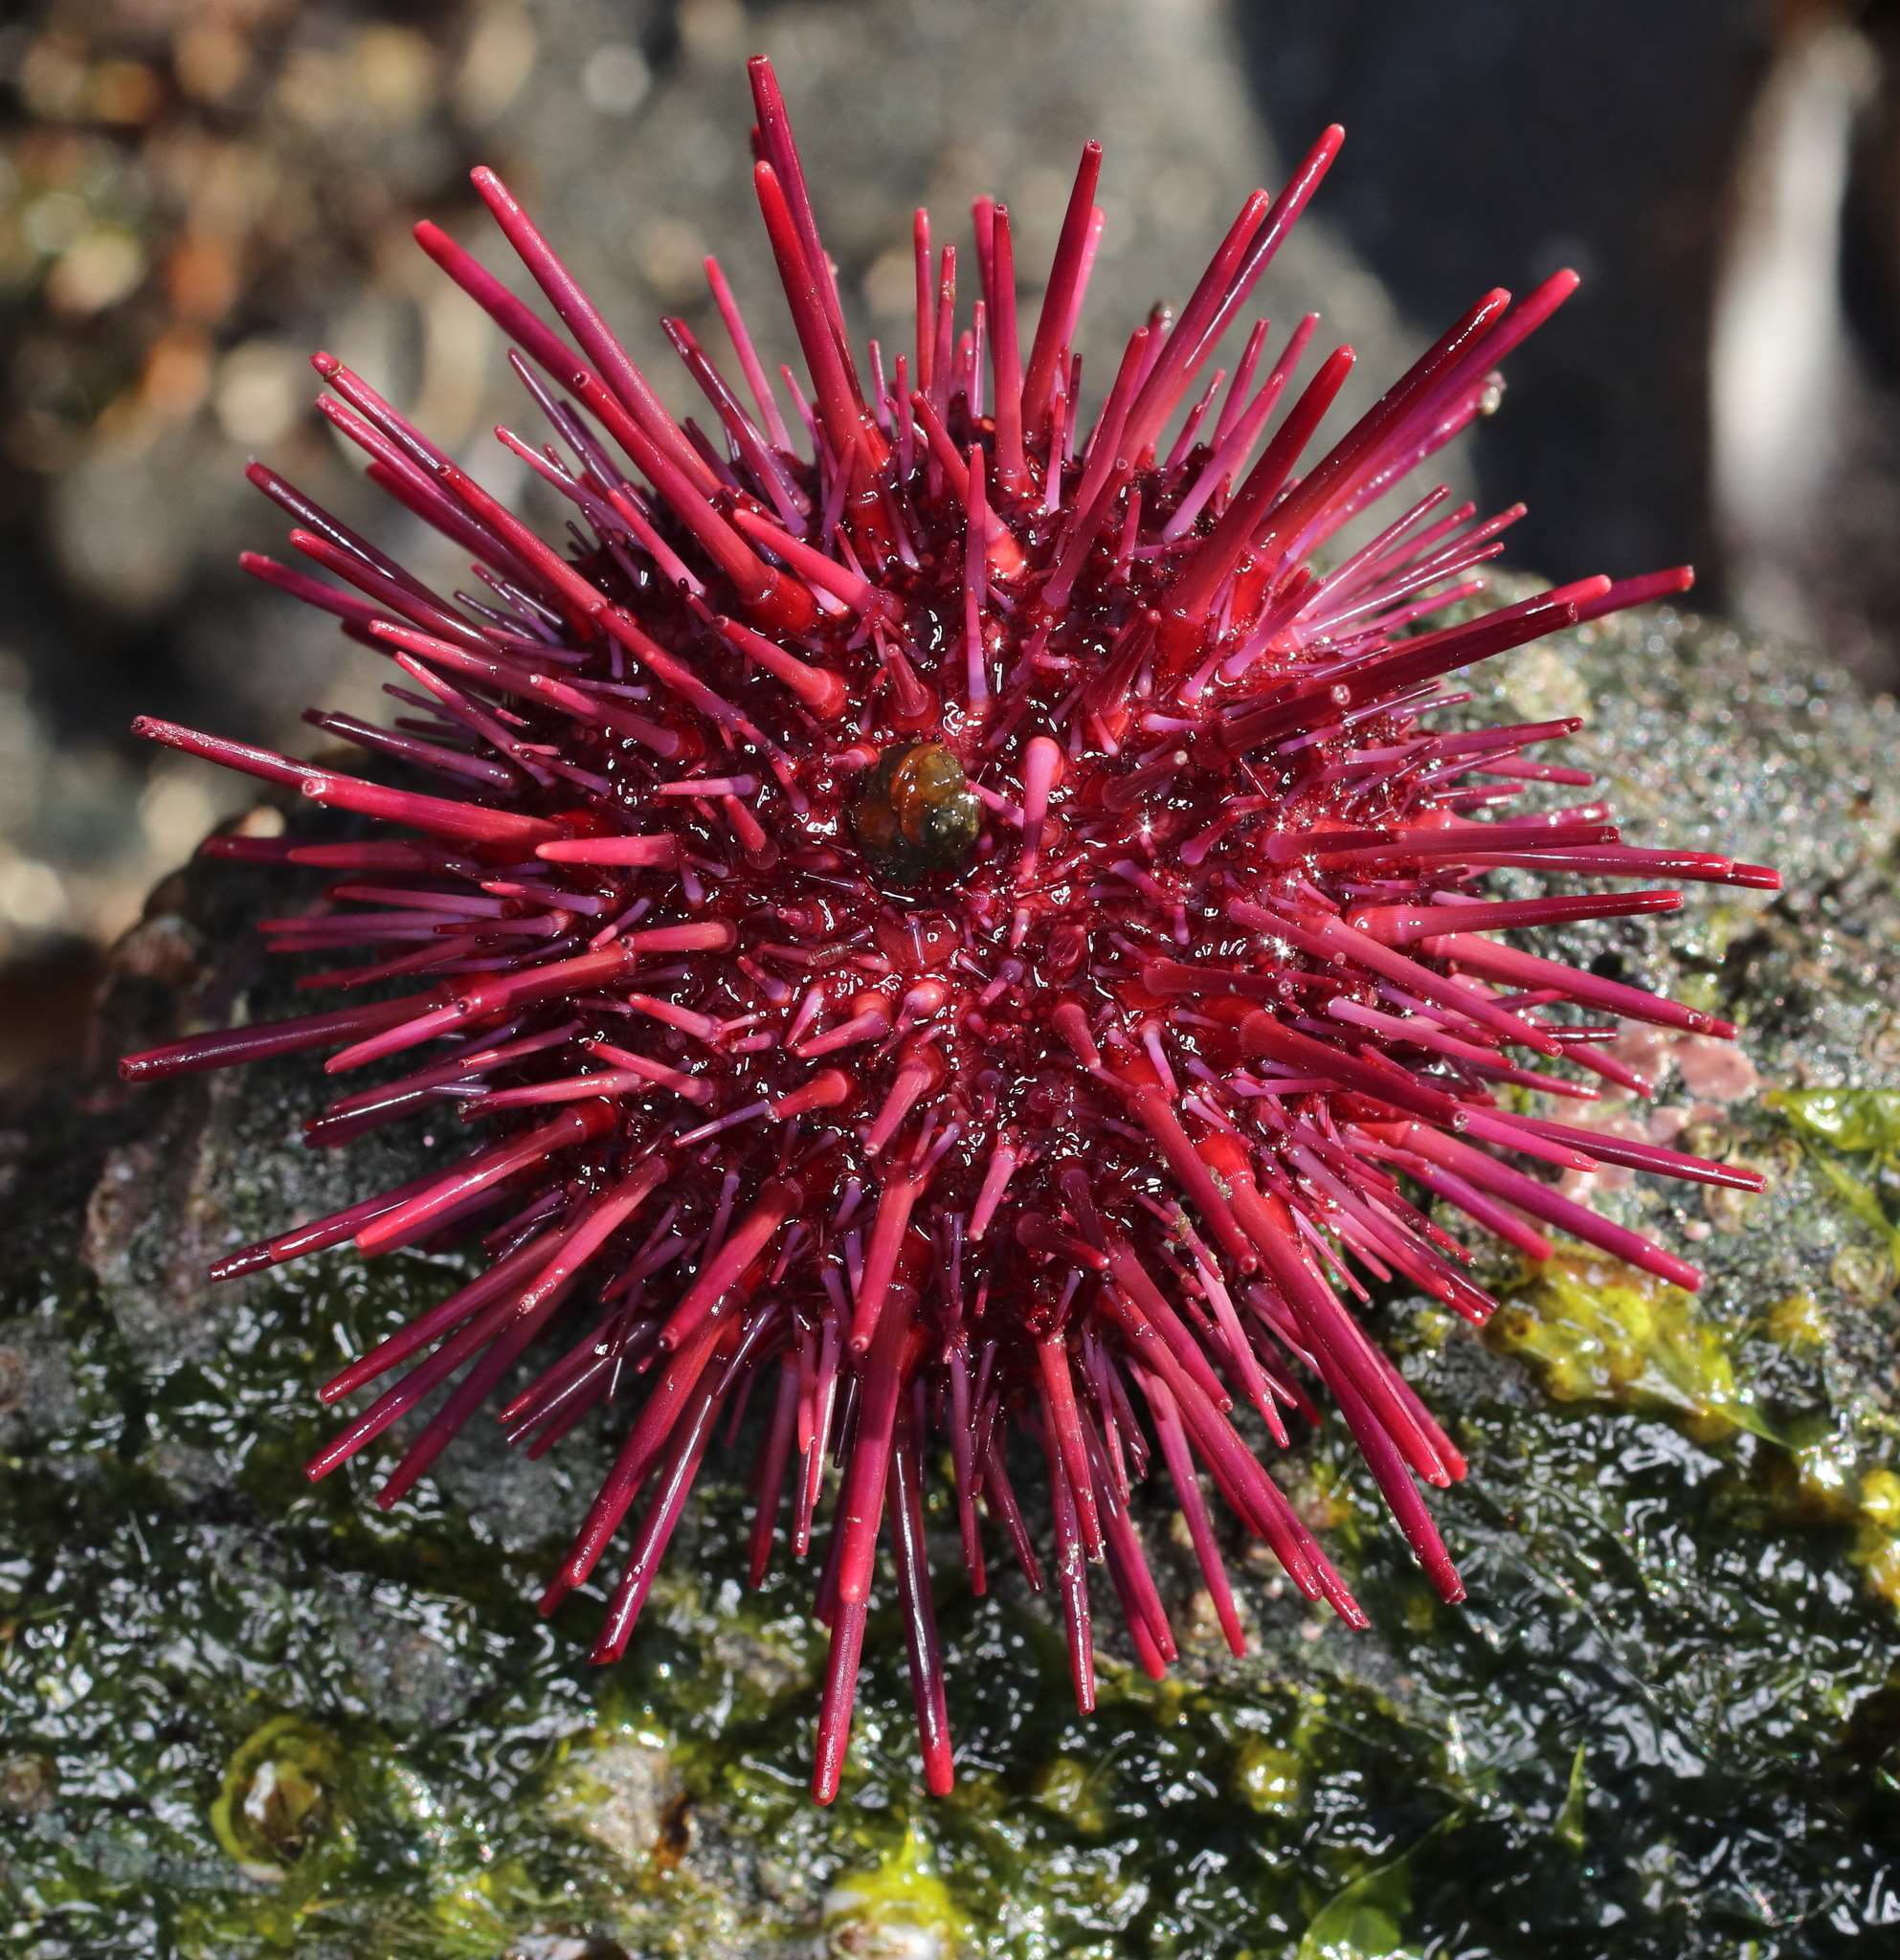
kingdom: Animalia
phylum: Echinodermata
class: Echinoidea
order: Camarodonta
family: Strongylocentrotidae
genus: Mesocentrotus
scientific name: Mesocentrotus franciscanus
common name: Red sea urchin
